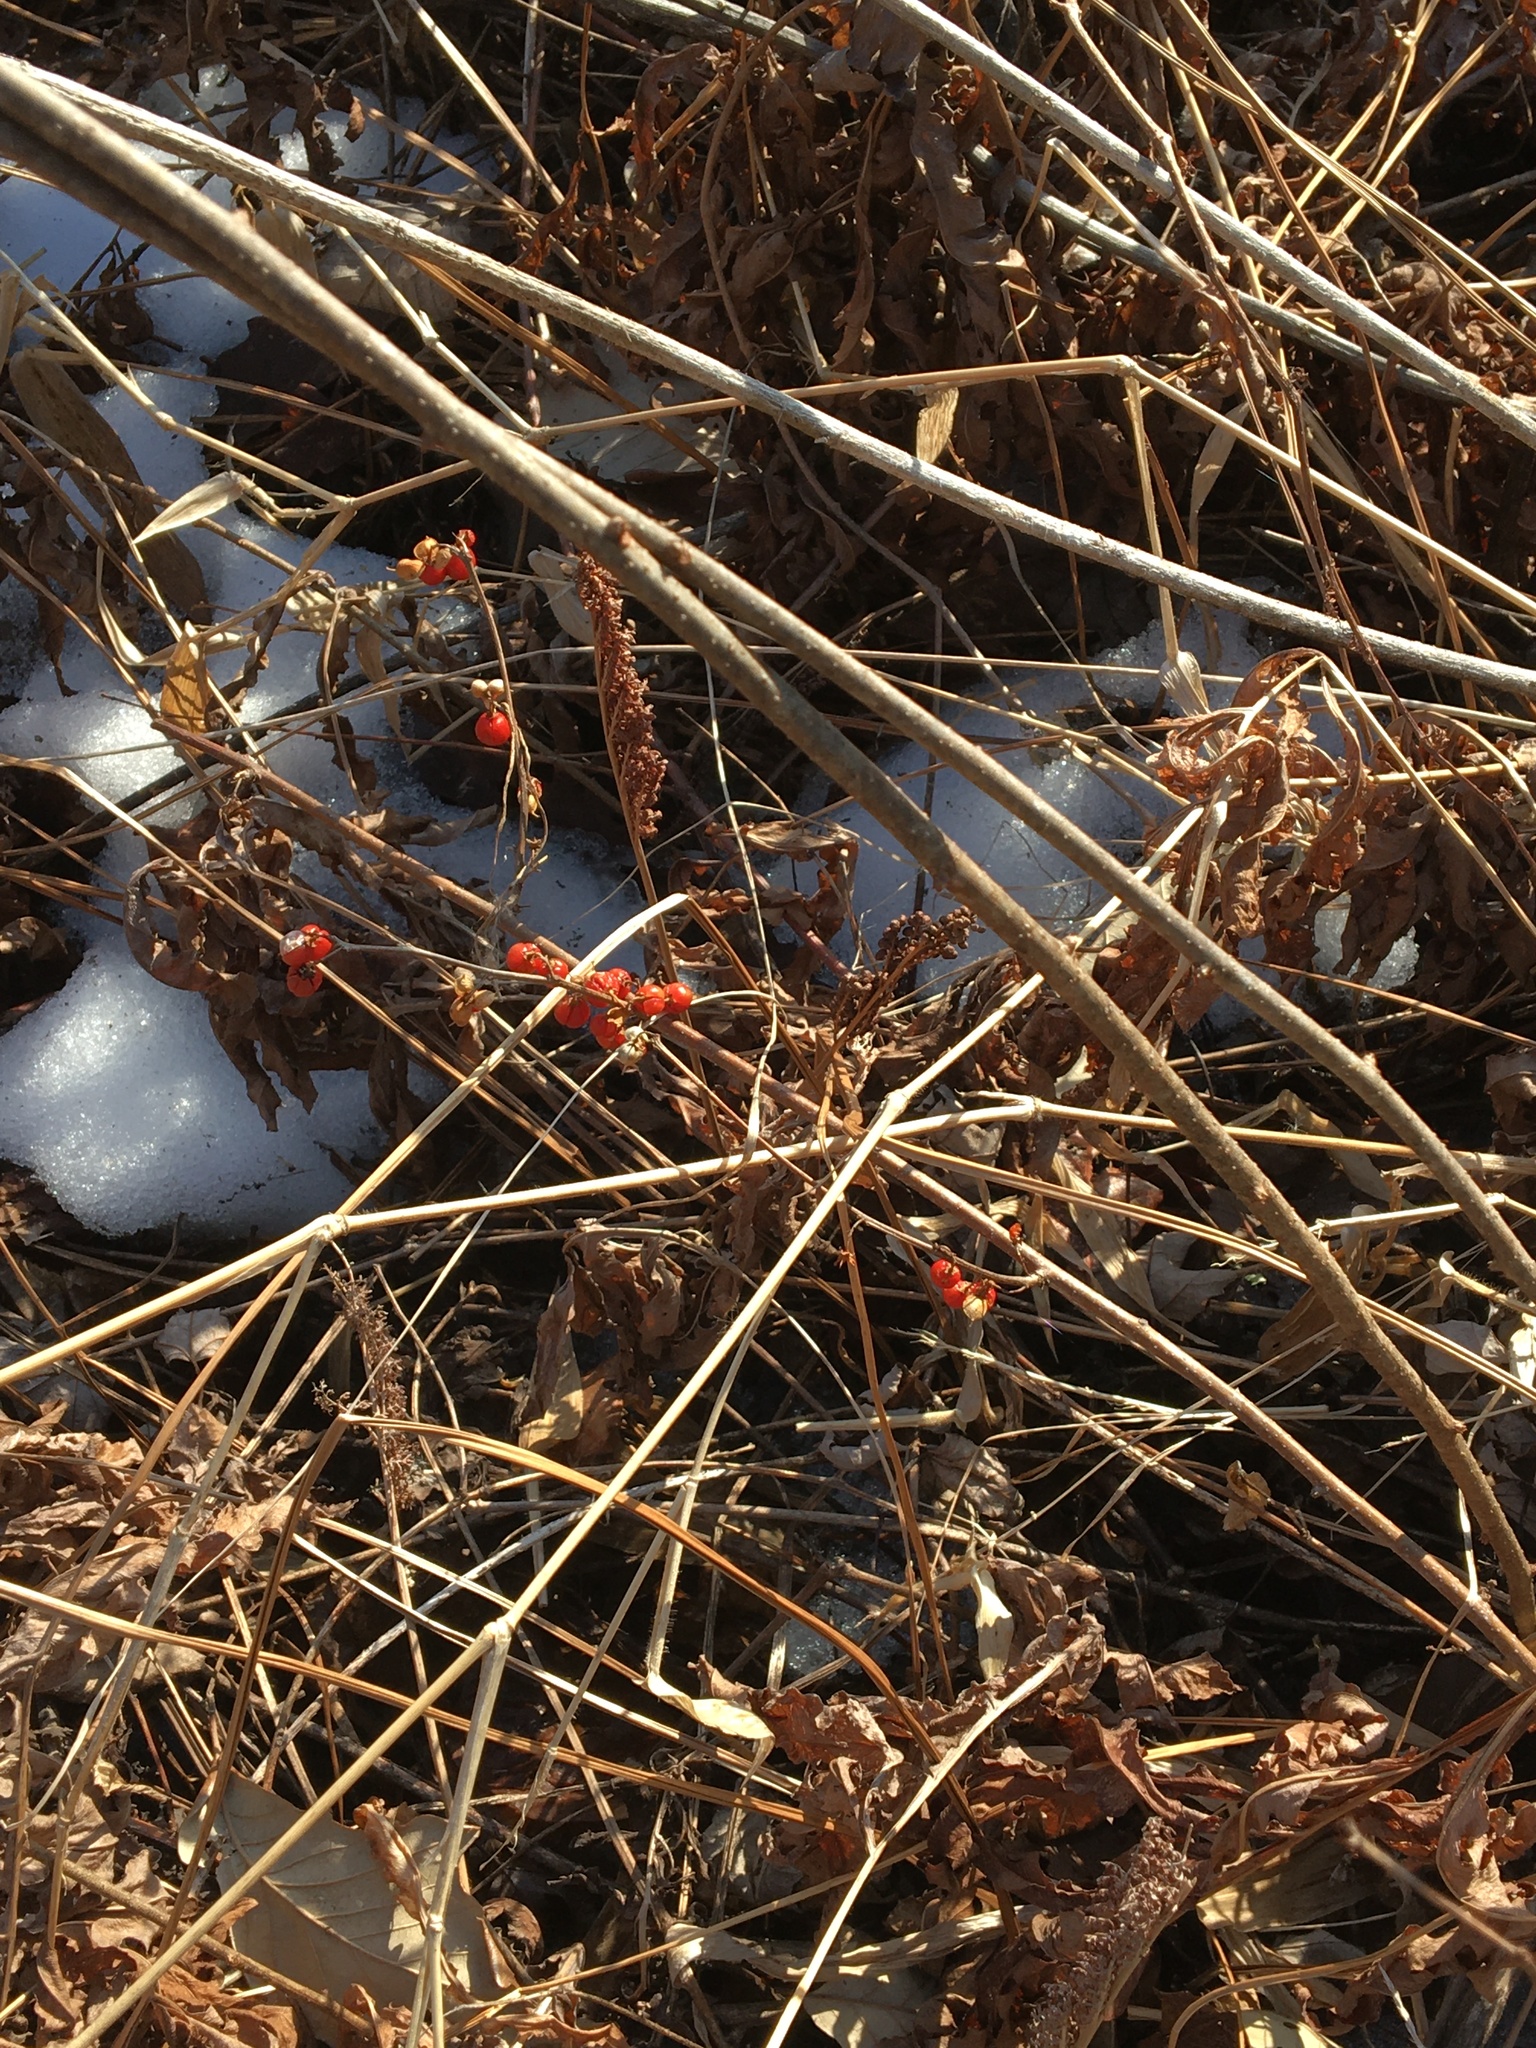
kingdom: Plantae
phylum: Tracheophyta
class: Magnoliopsida
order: Celastrales
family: Celastraceae
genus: Celastrus
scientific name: Celastrus orbiculatus
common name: Oriental bittersweet
